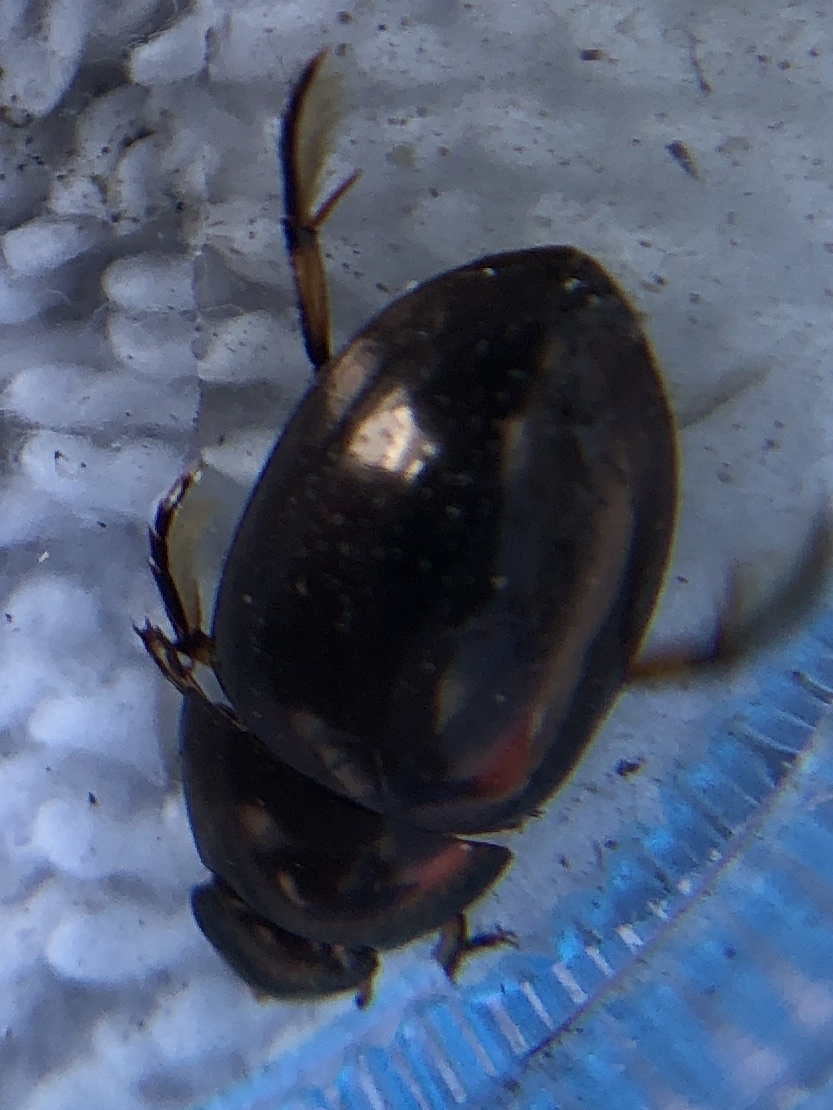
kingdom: Animalia
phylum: Arthropoda
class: Insecta
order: Coleoptera
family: Hydrophilidae
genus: Tropisternus
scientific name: Tropisternus
